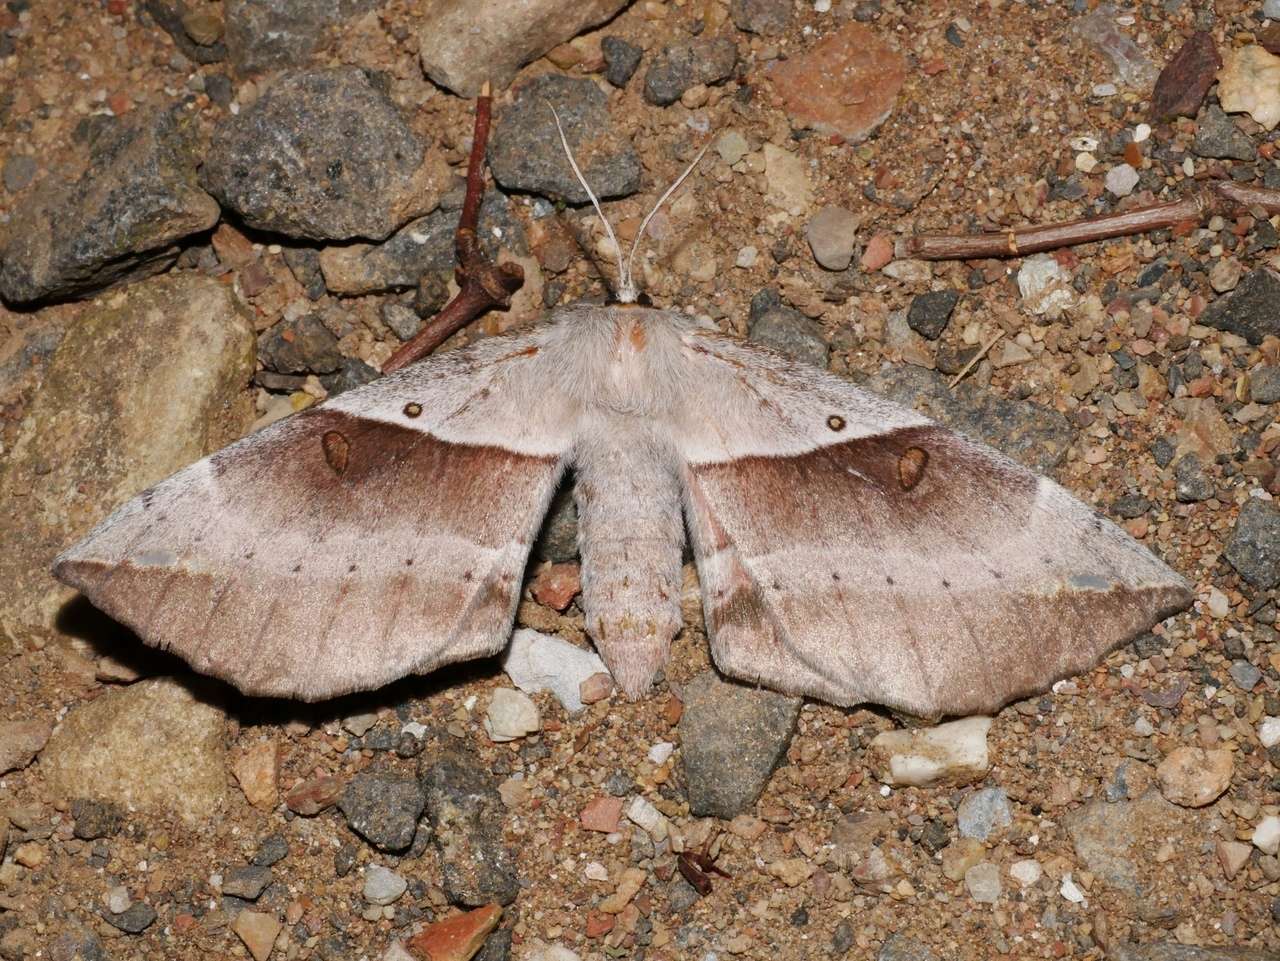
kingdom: Animalia
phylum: Arthropoda
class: Insecta
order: Lepidoptera
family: Anthelidae
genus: Chelepteryx
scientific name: Chelepteryx chalepteryx
